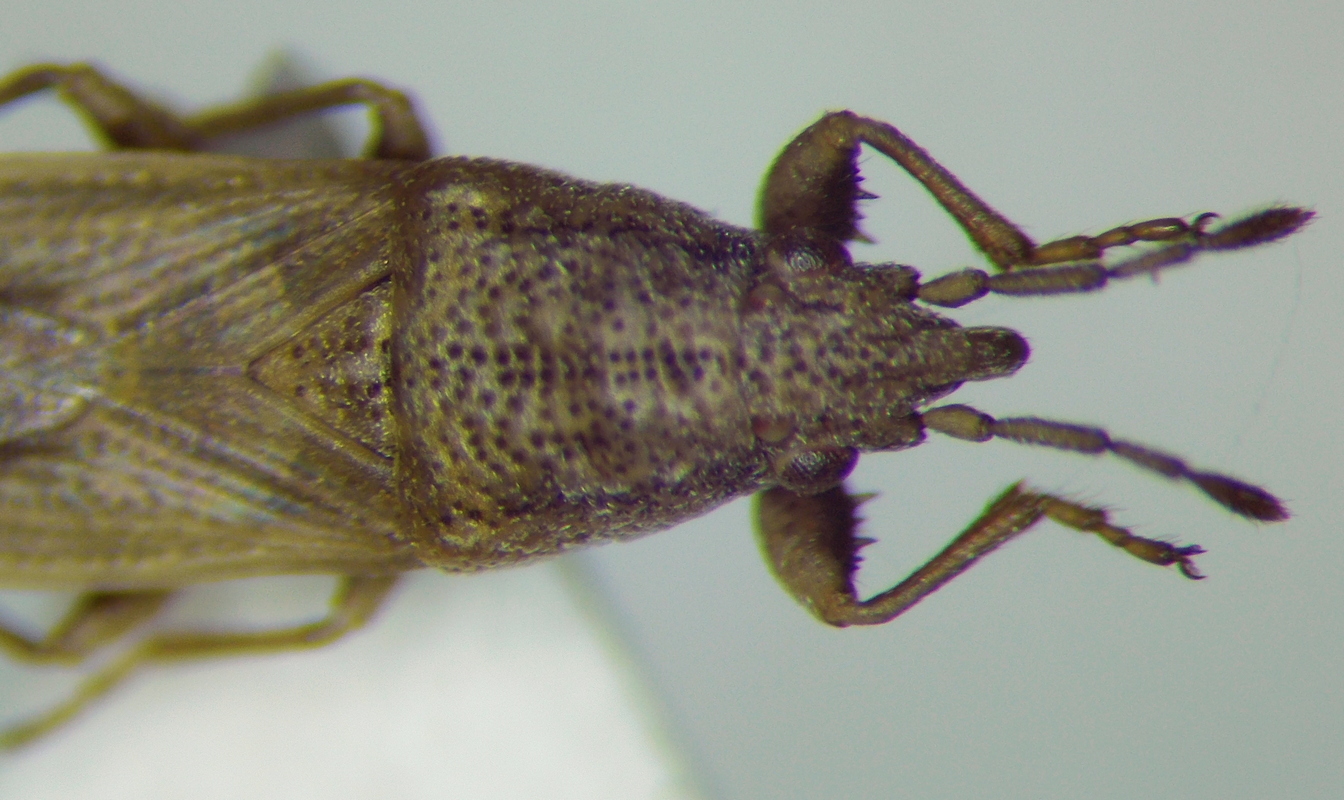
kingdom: Animalia
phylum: Arthropoda
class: Insecta
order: Hemiptera
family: Pachygronthidae
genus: Cymophyes
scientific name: Cymophyes golodnajana
